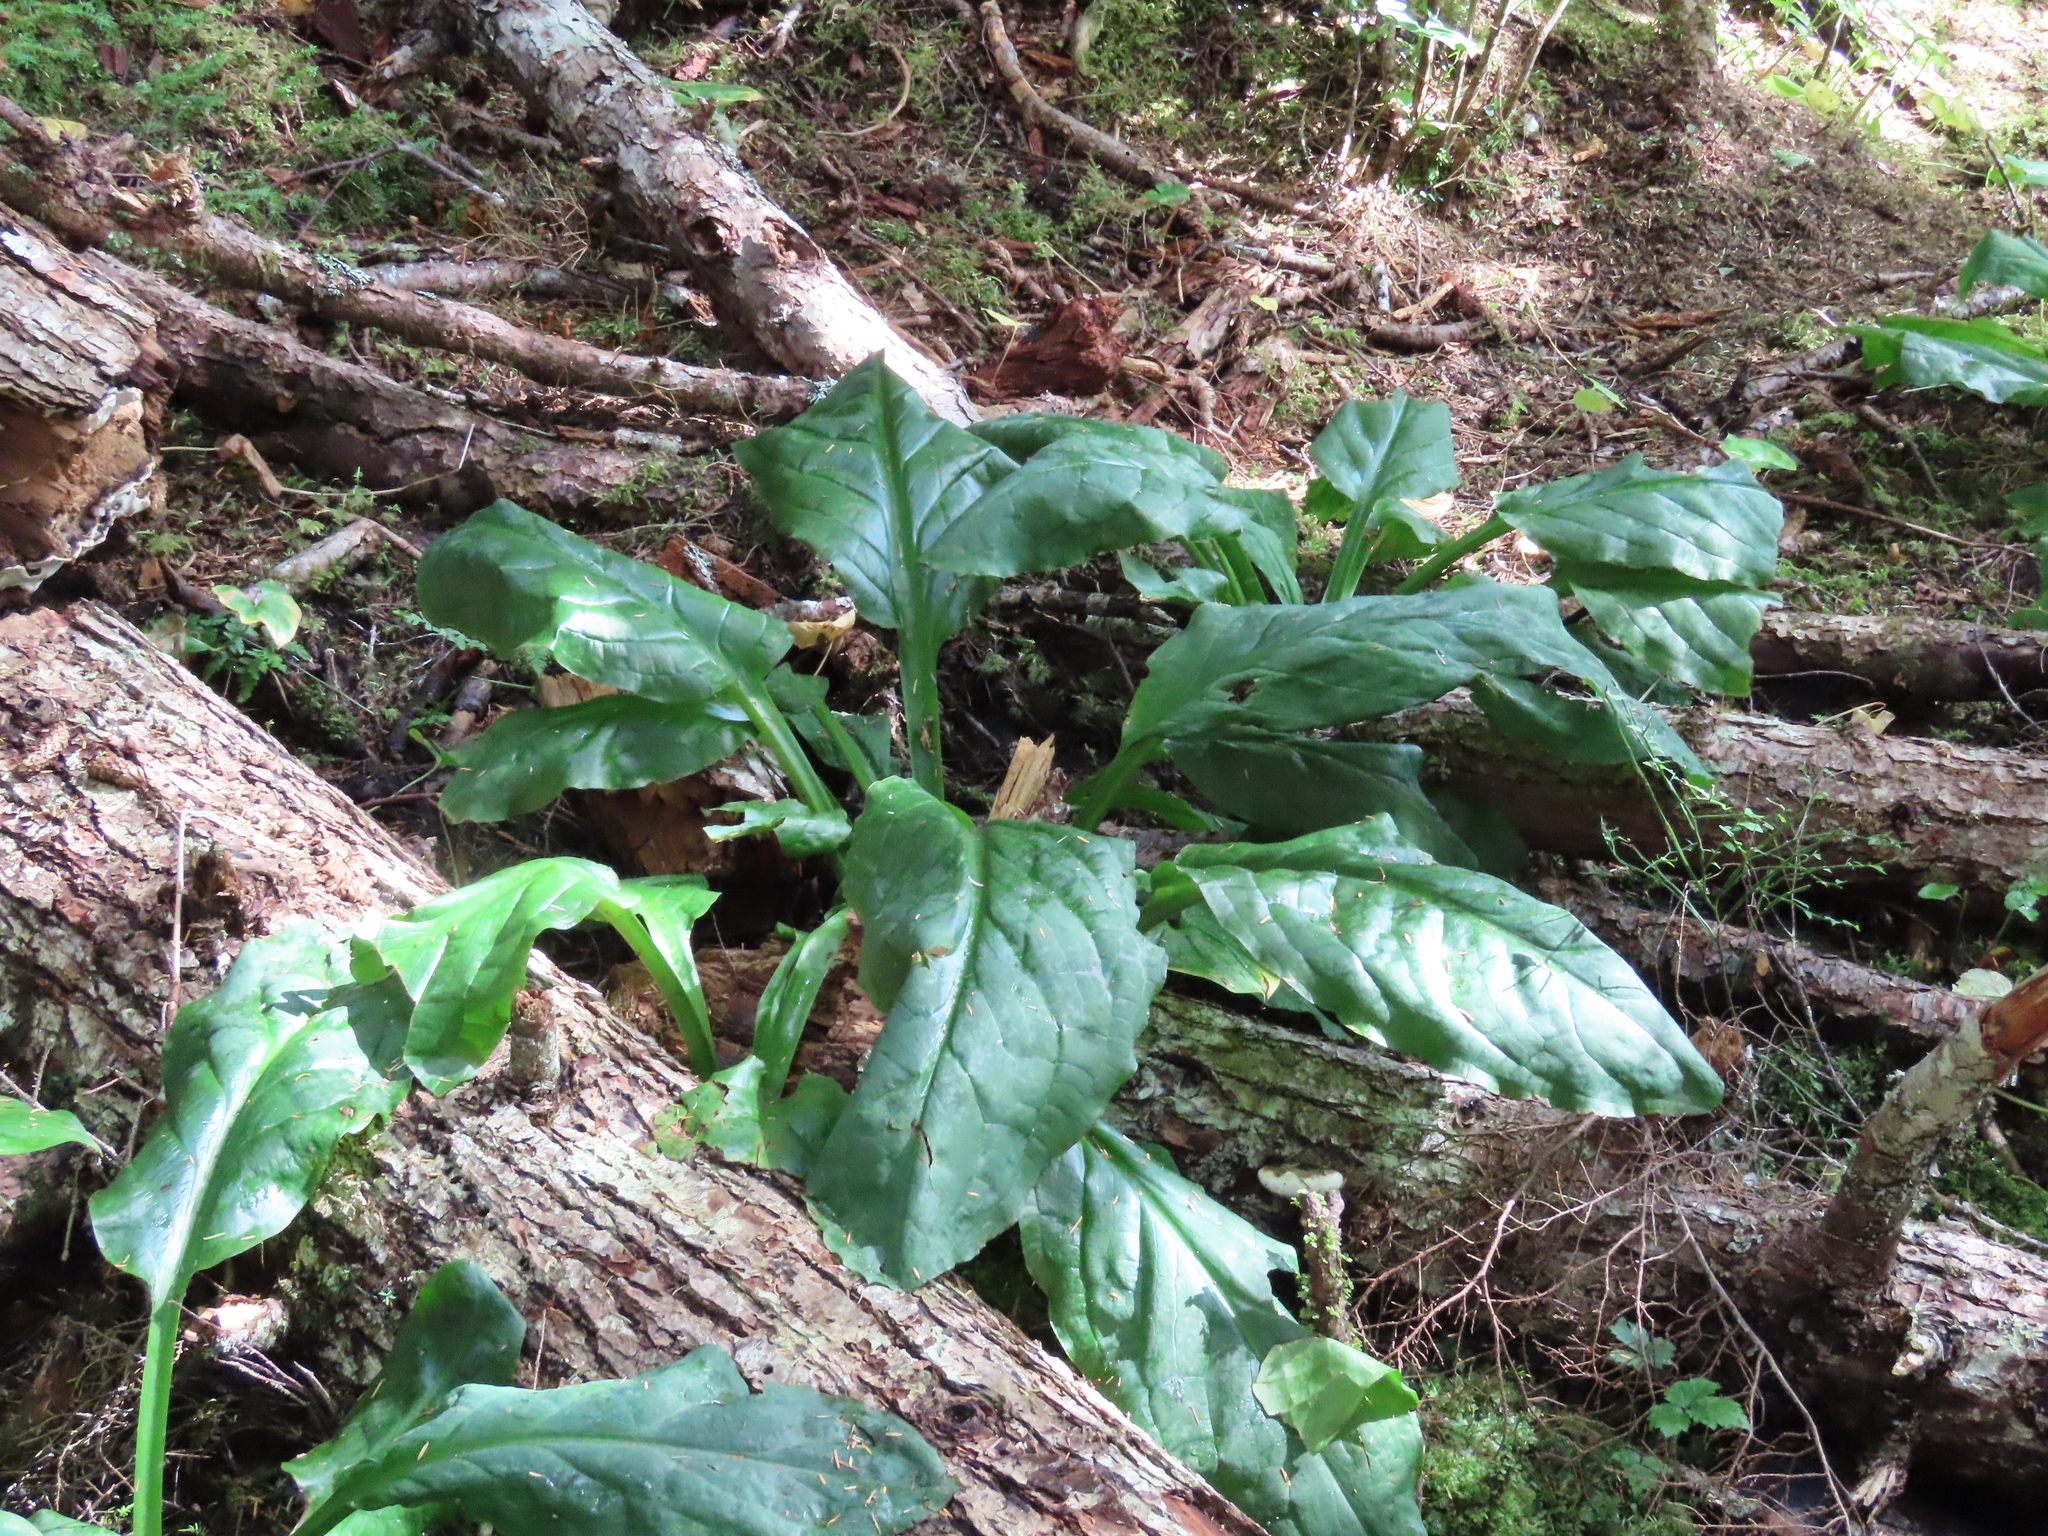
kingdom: Plantae
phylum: Tracheophyta
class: Liliopsida
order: Alismatales
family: Araceae
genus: Lysichiton
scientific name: Lysichiton americanus
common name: American skunk cabbage
